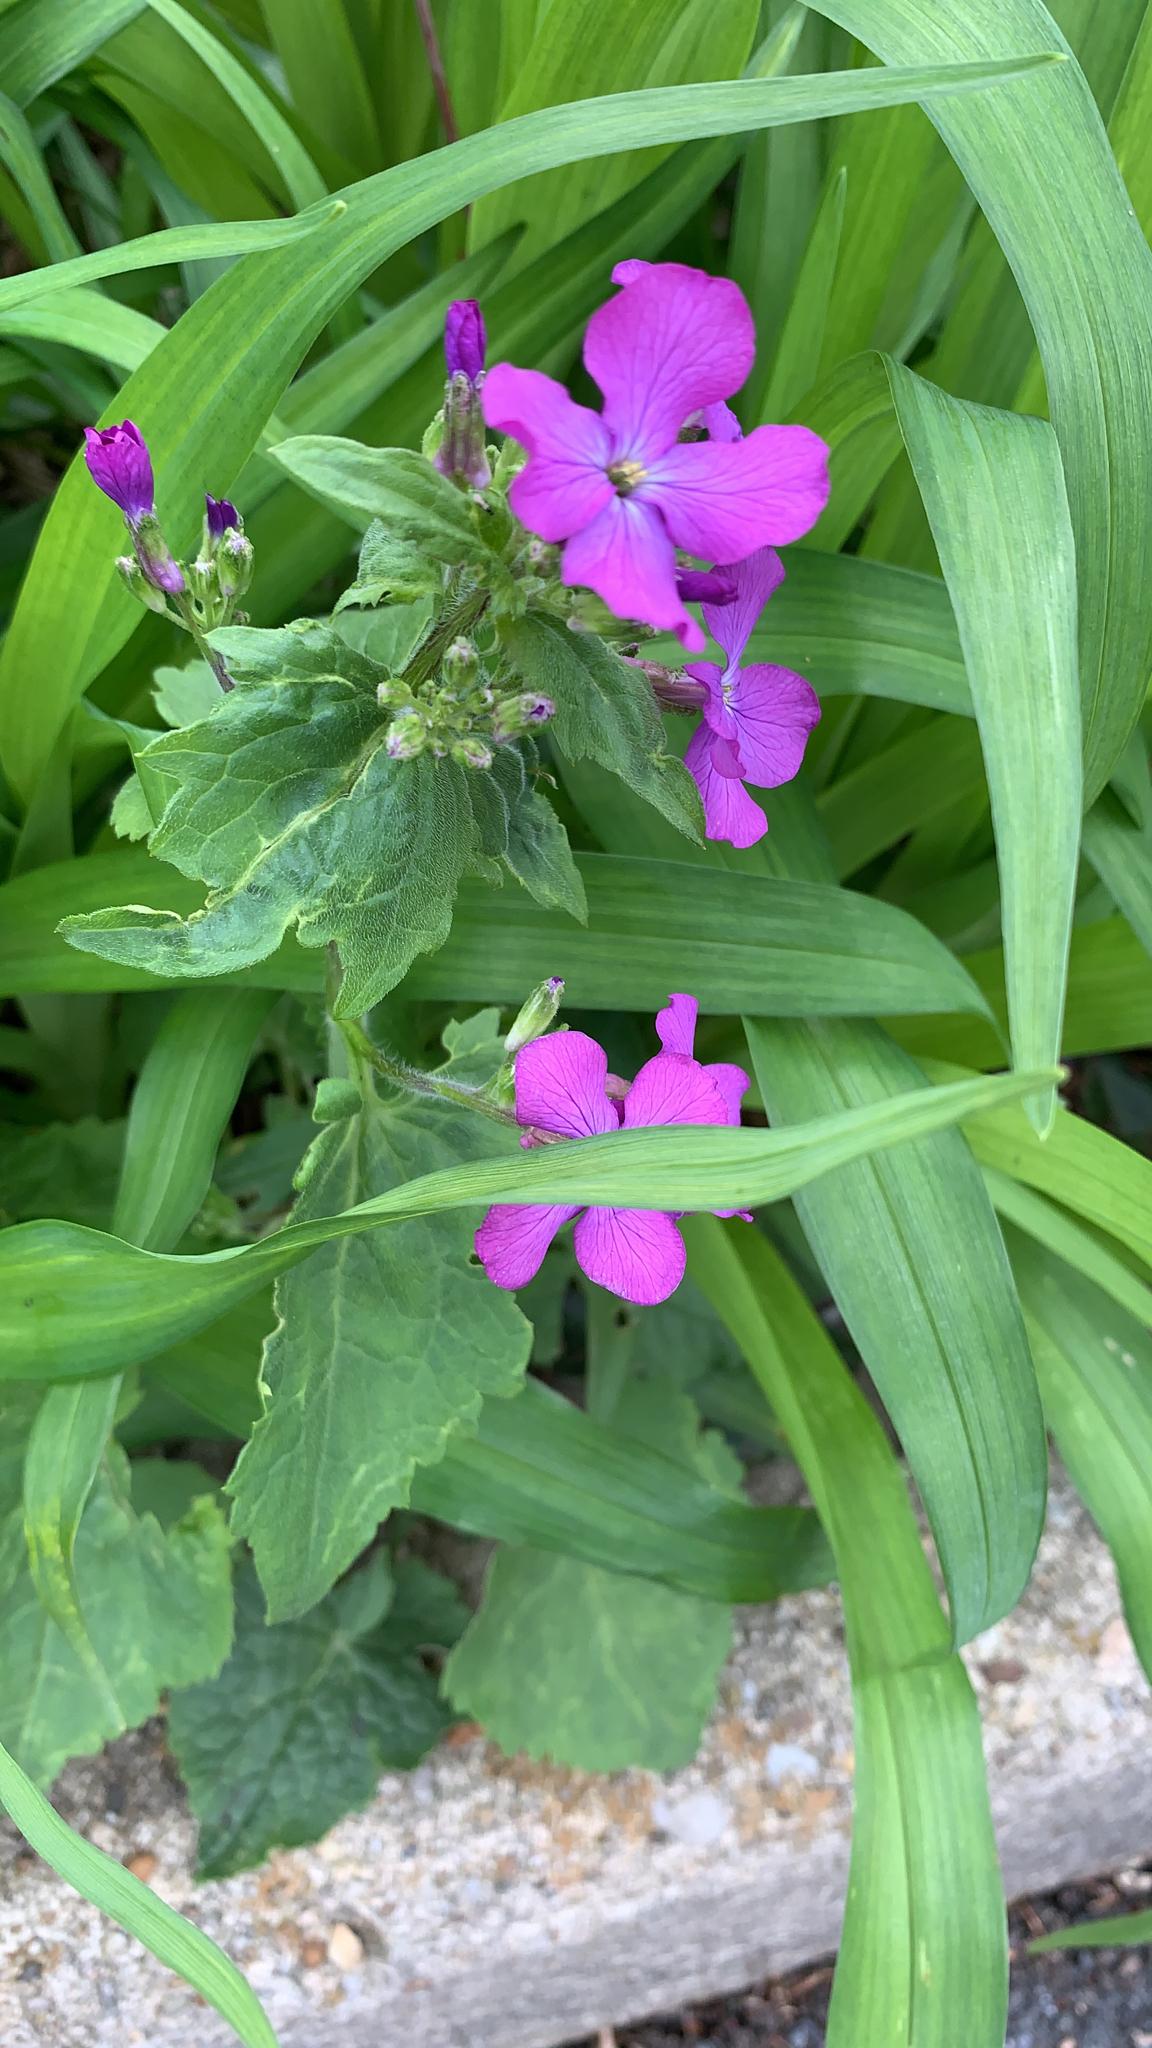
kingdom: Plantae
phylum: Tracheophyta
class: Magnoliopsida
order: Brassicales
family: Brassicaceae
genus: Lunaria
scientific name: Lunaria annua
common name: Honesty
